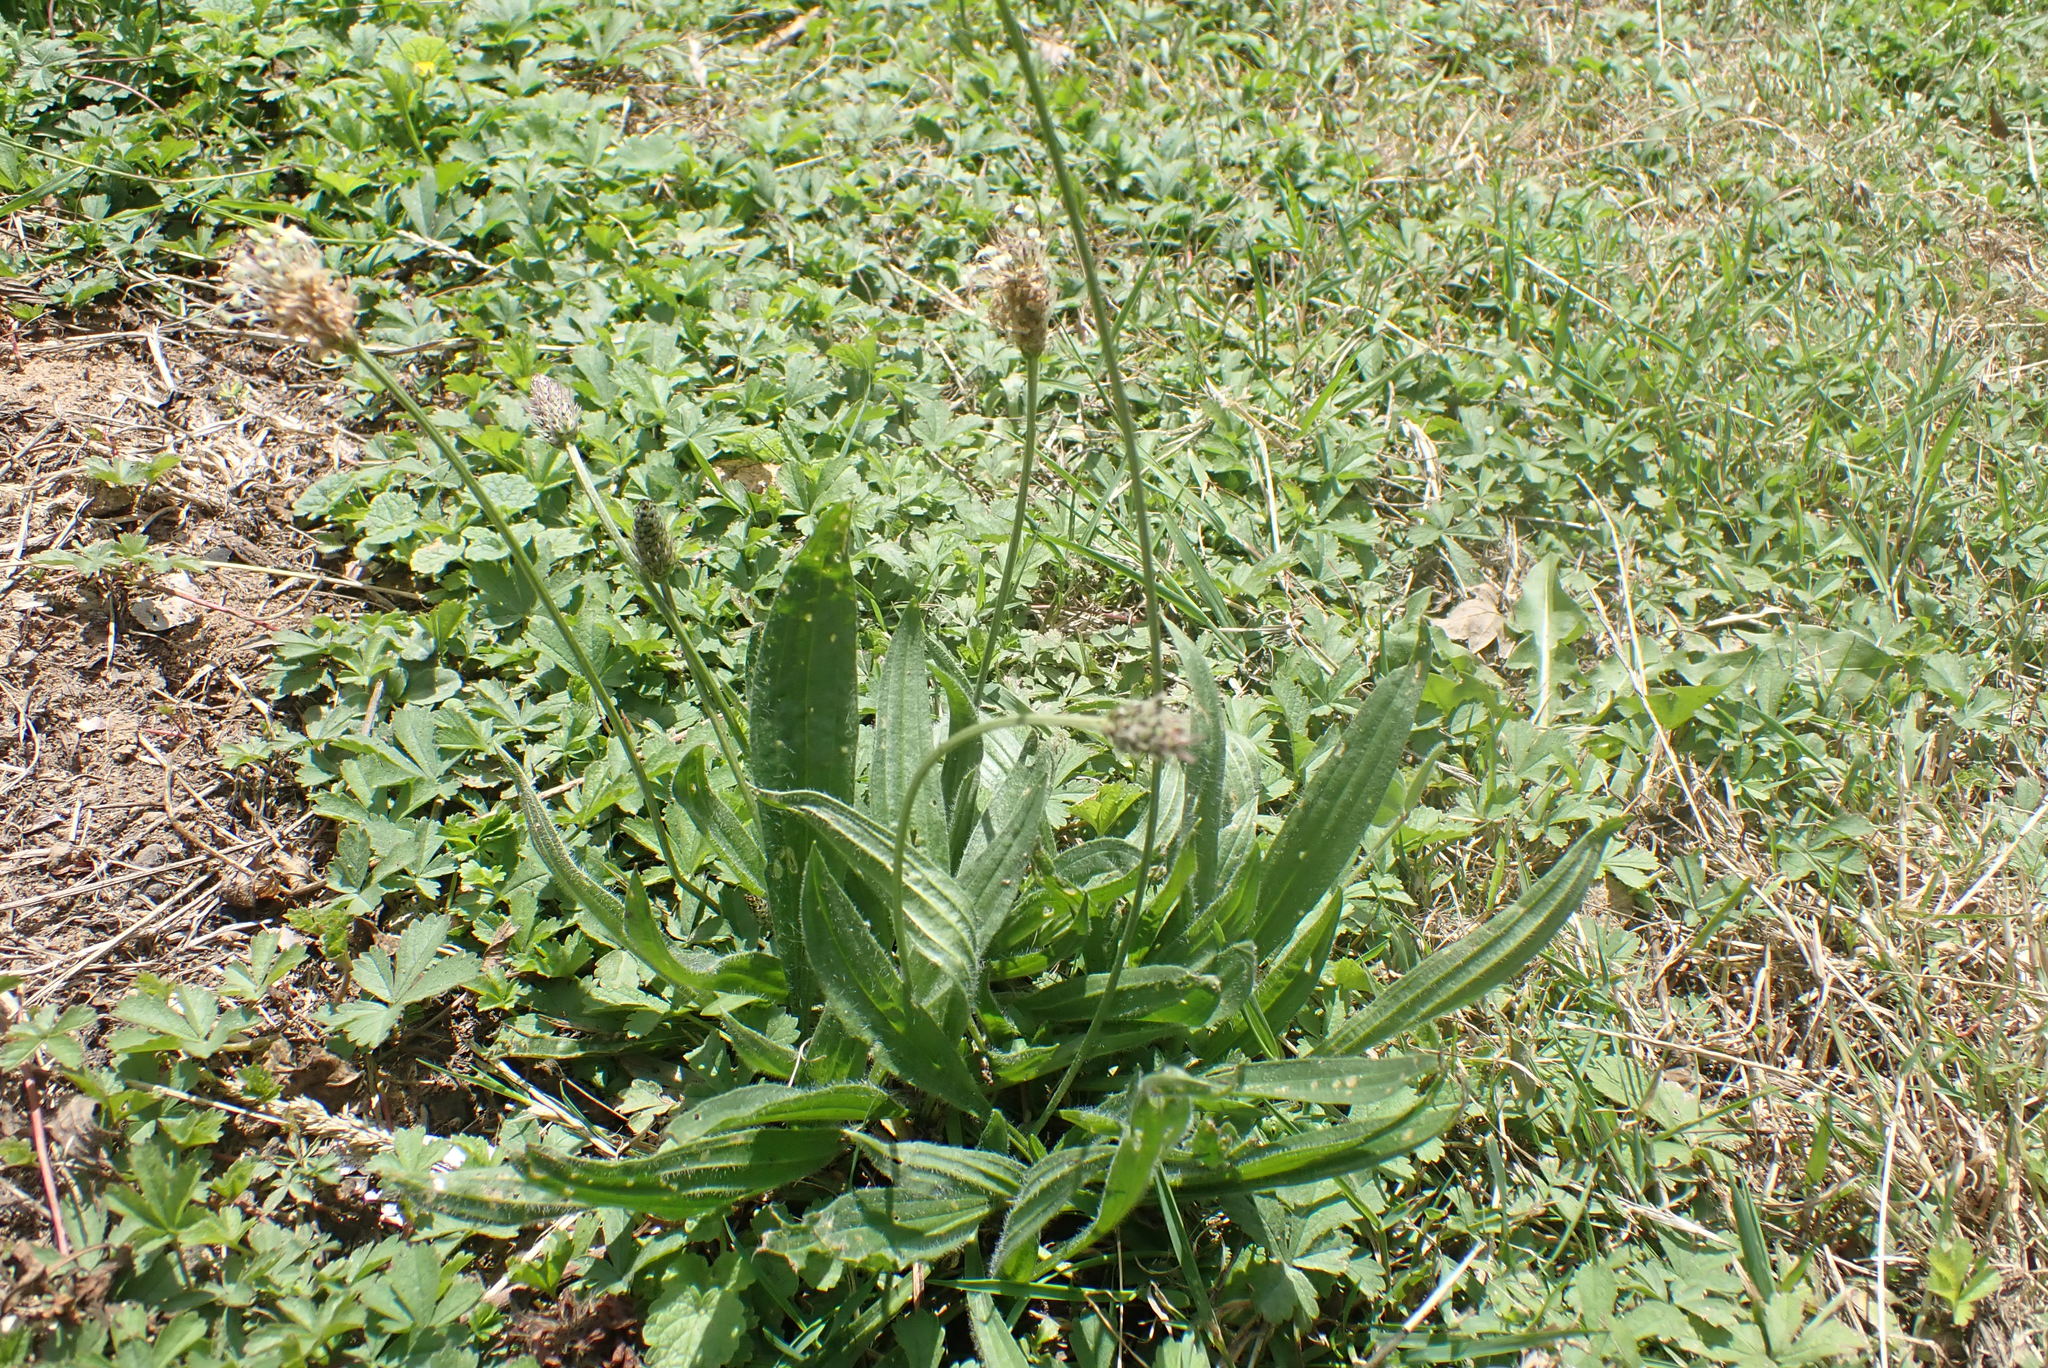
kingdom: Plantae
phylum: Tracheophyta
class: Magnoliopsida
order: Lamiales
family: Plantaginaceae
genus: Plantago
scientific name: Plantago lanceolata
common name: Ribwort plantain
